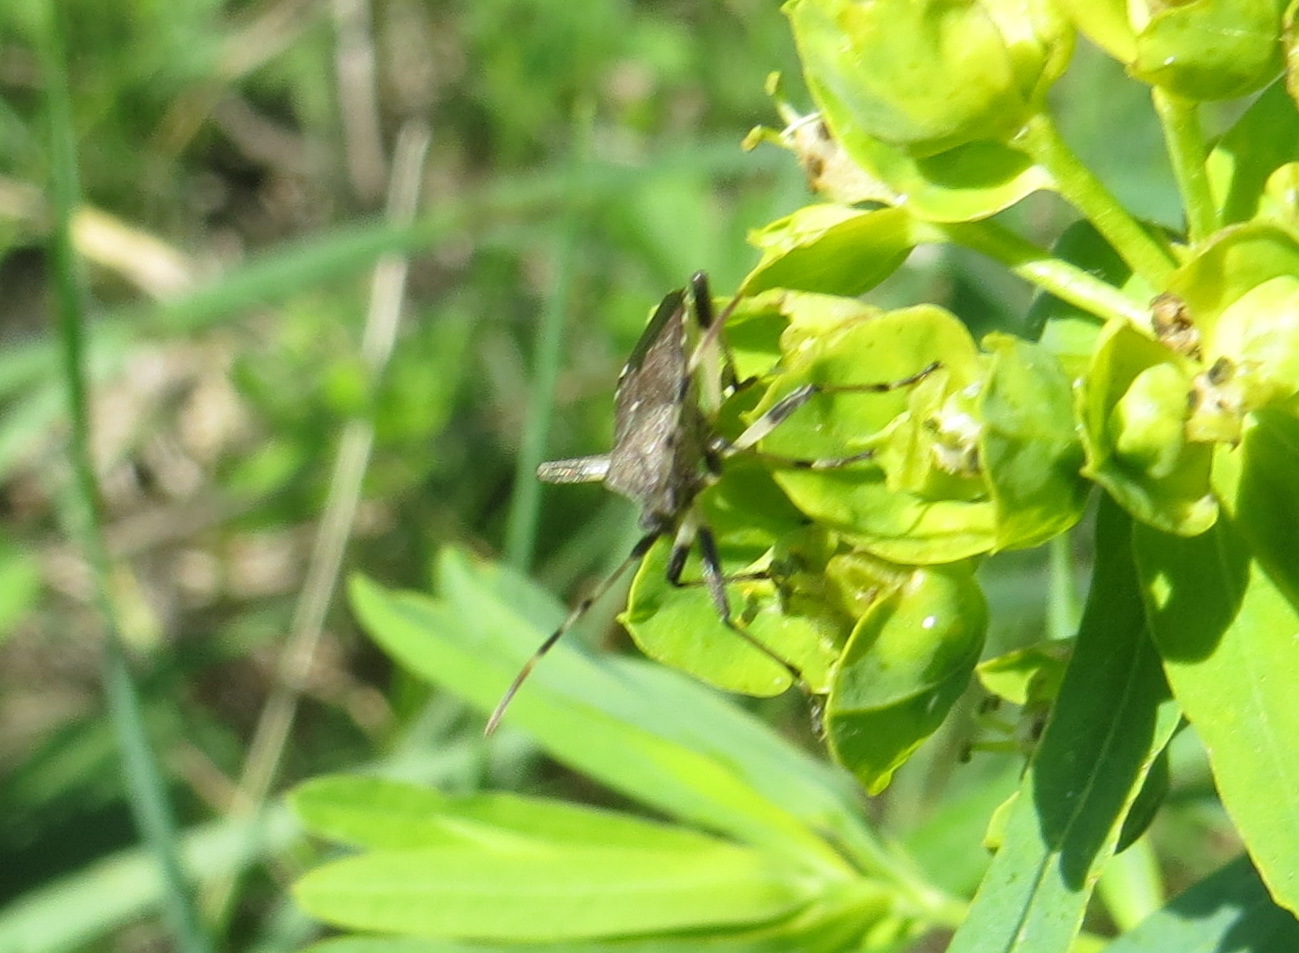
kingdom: Animalia
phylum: Arthropoda
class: Insecta
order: Hemiptera
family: Stenocephalidae
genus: Dicranocephalus
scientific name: Dicranocephalus albipes
